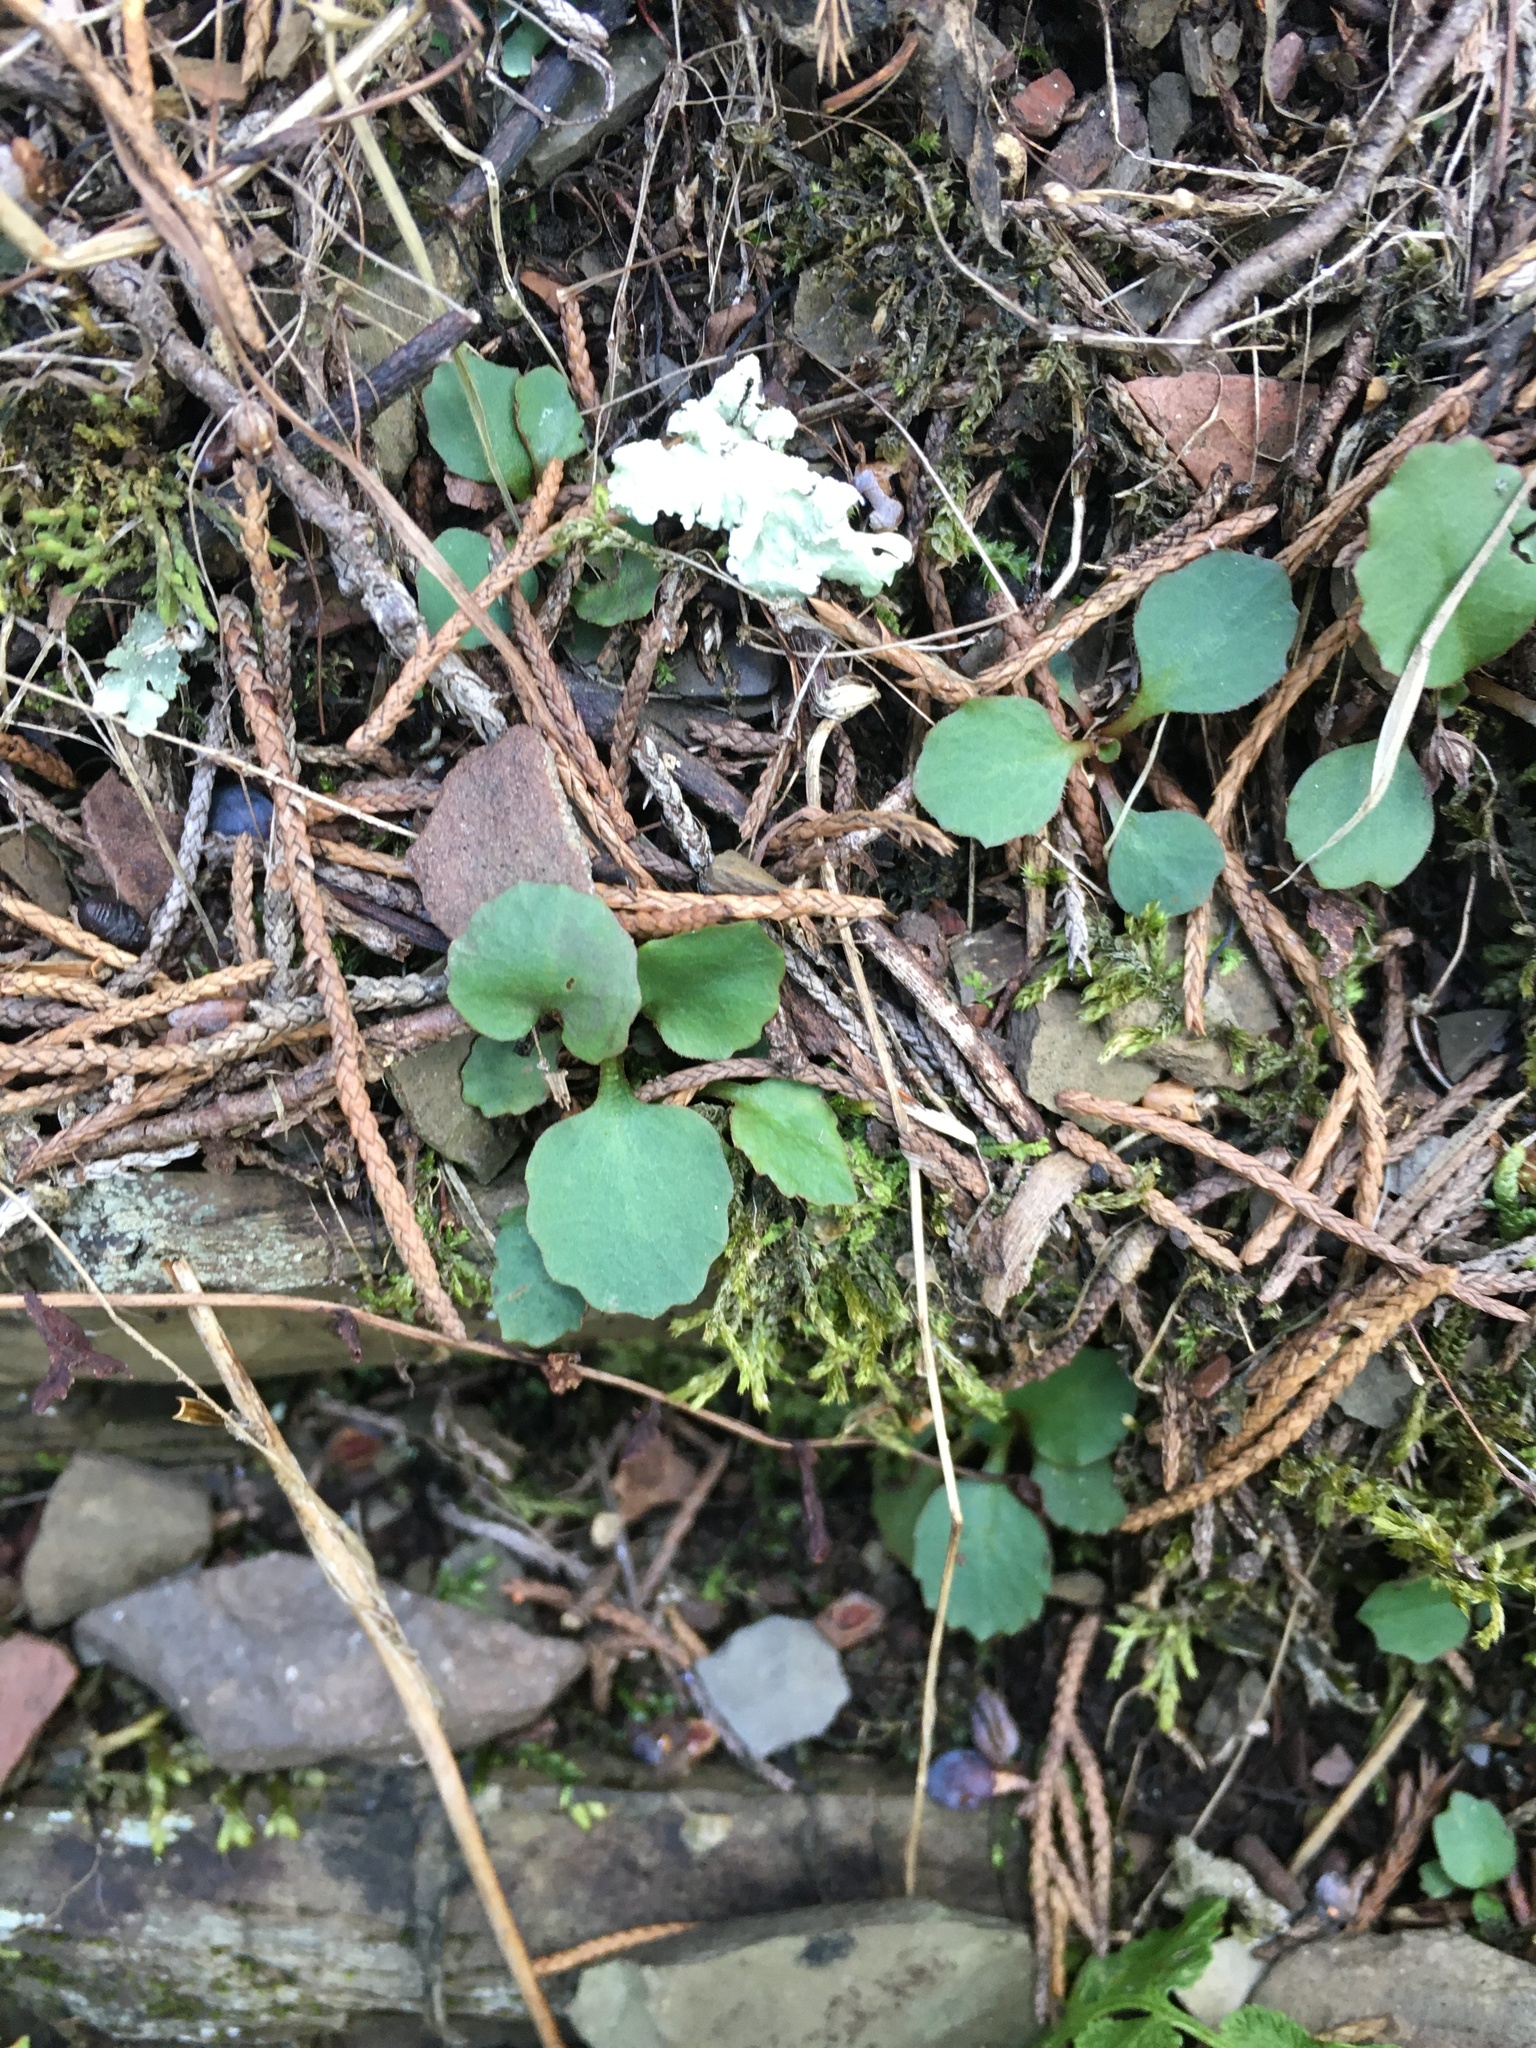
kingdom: Plantae
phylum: Tracheophyta
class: Magnoliopsida
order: Saxifragales
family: Saxifragaceae
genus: Micranthes
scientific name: Micranthes virginiensis
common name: Early saxifrage
